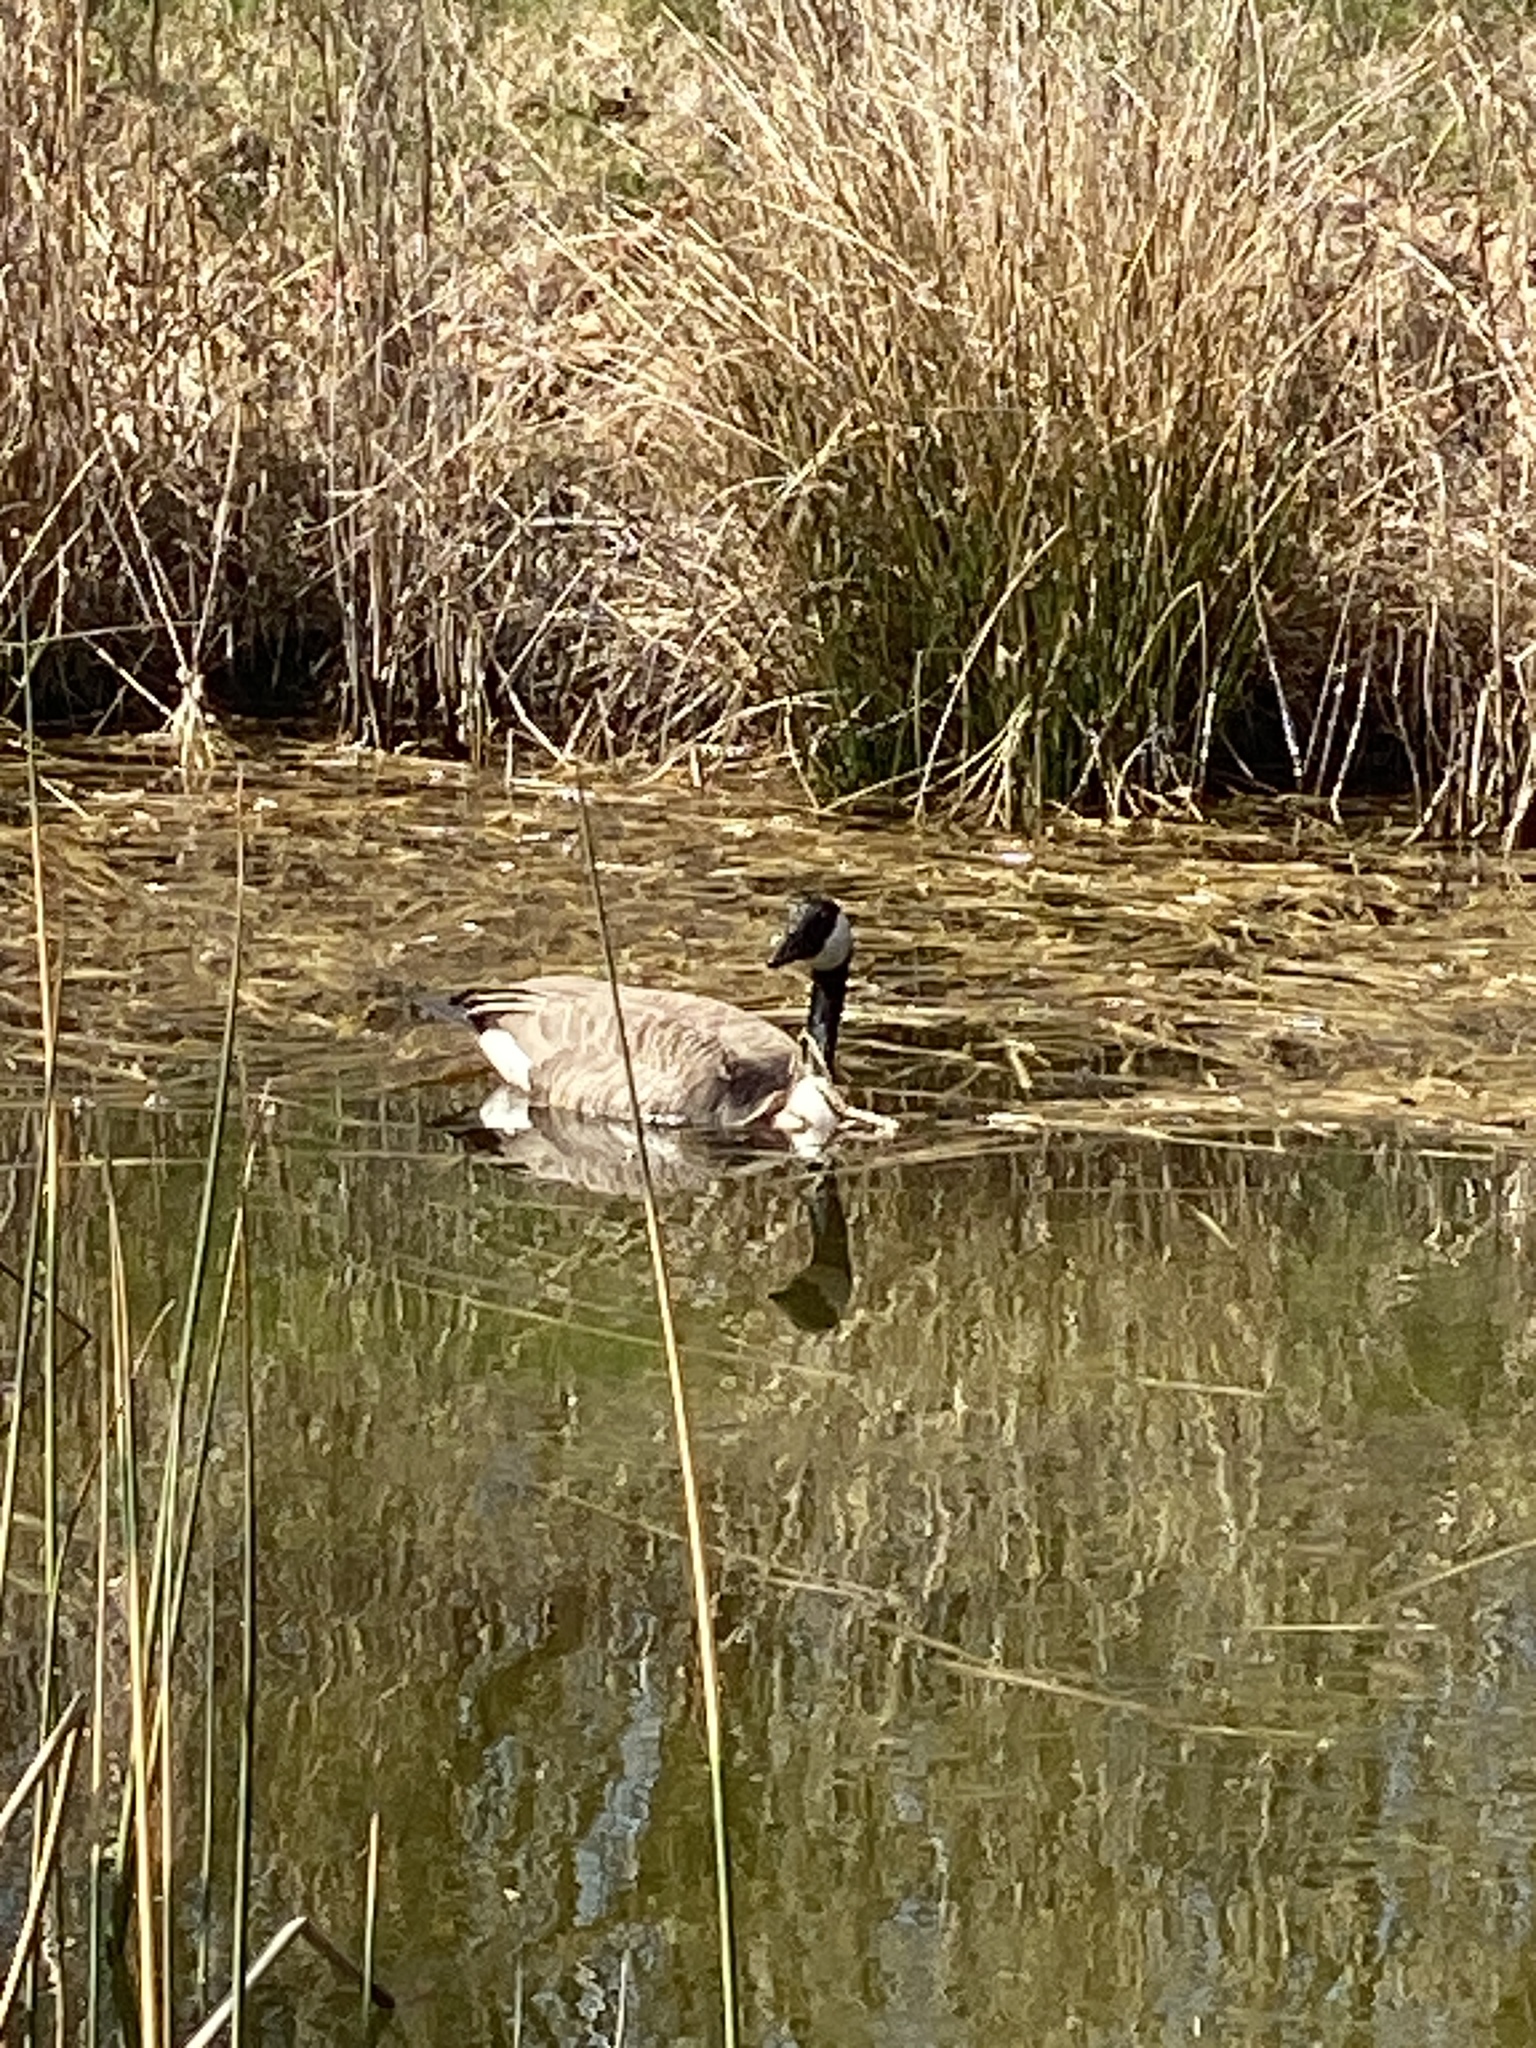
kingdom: Animalia
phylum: Chordata
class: Aves
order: Anseriformes
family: Anatidae
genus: Branta
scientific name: Branta canadensis
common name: Canada goose
